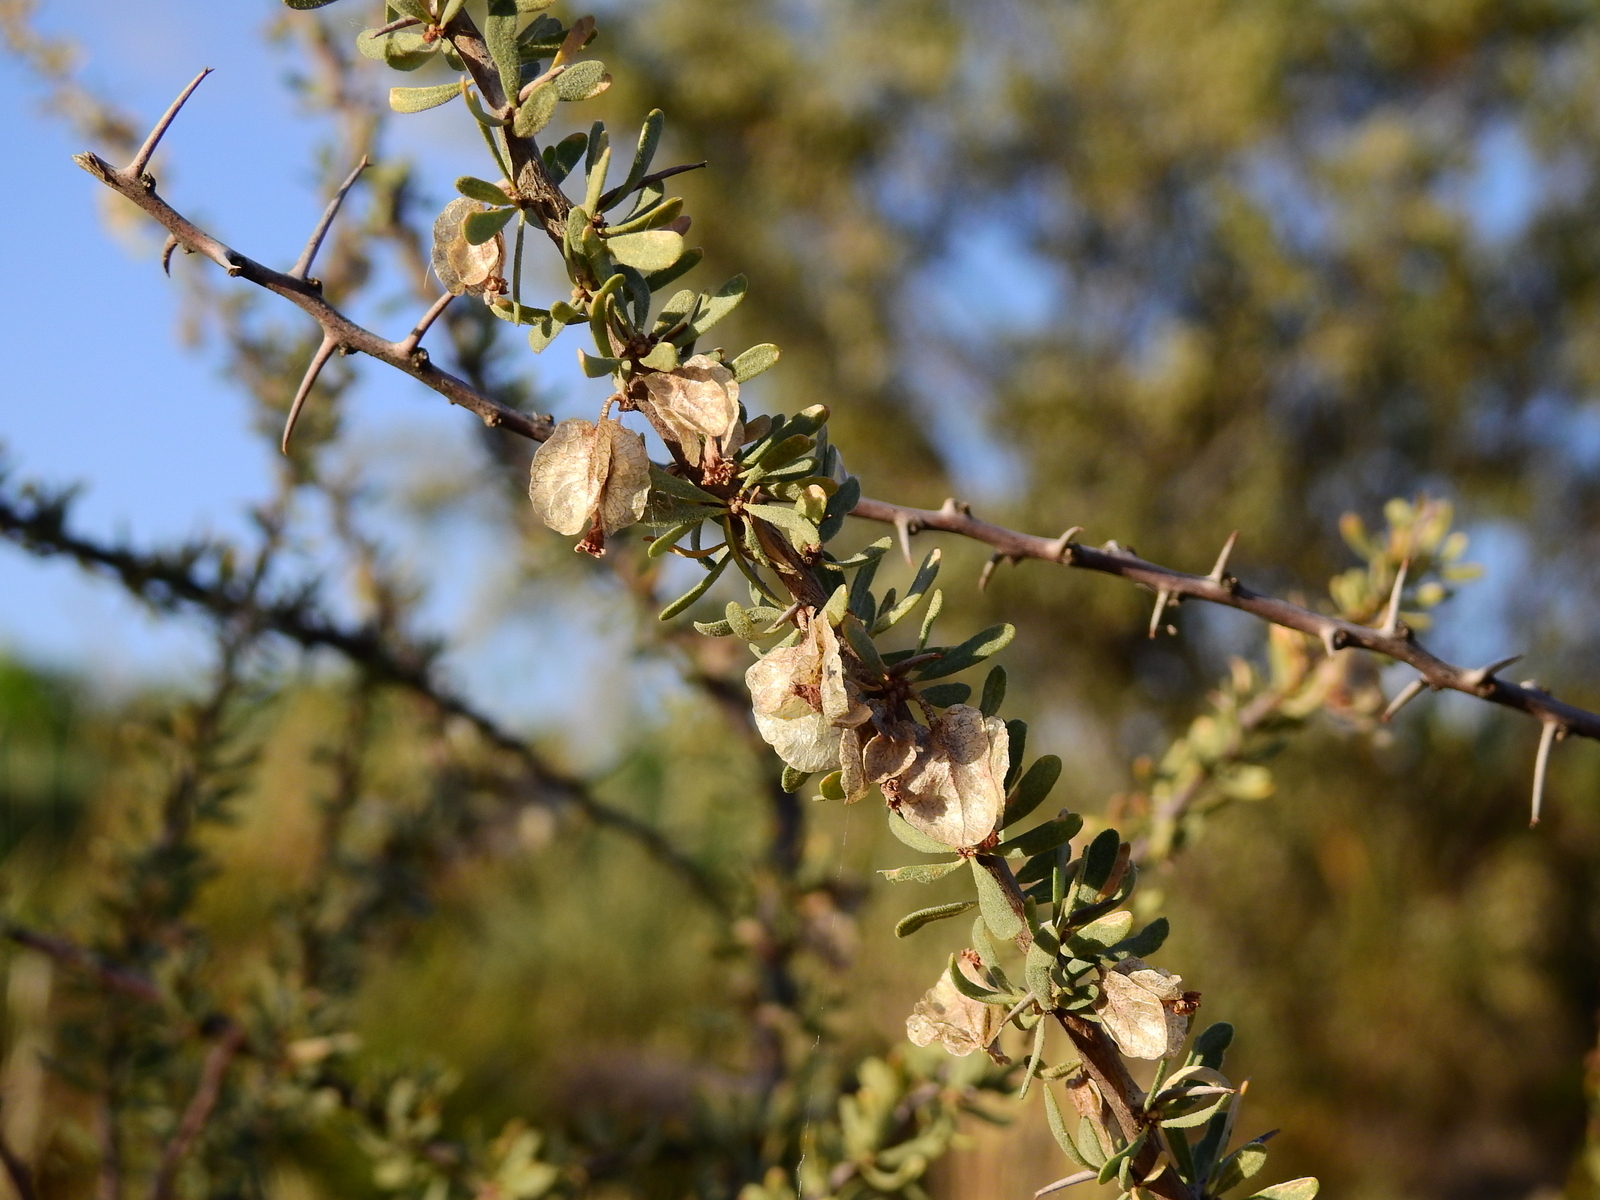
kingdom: Plantae
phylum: Tracheophyta
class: Magnoliopsida
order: Caryophyllales
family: Nyctaginaceae
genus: Bougainvillea
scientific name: Bougainvillea spinosa
